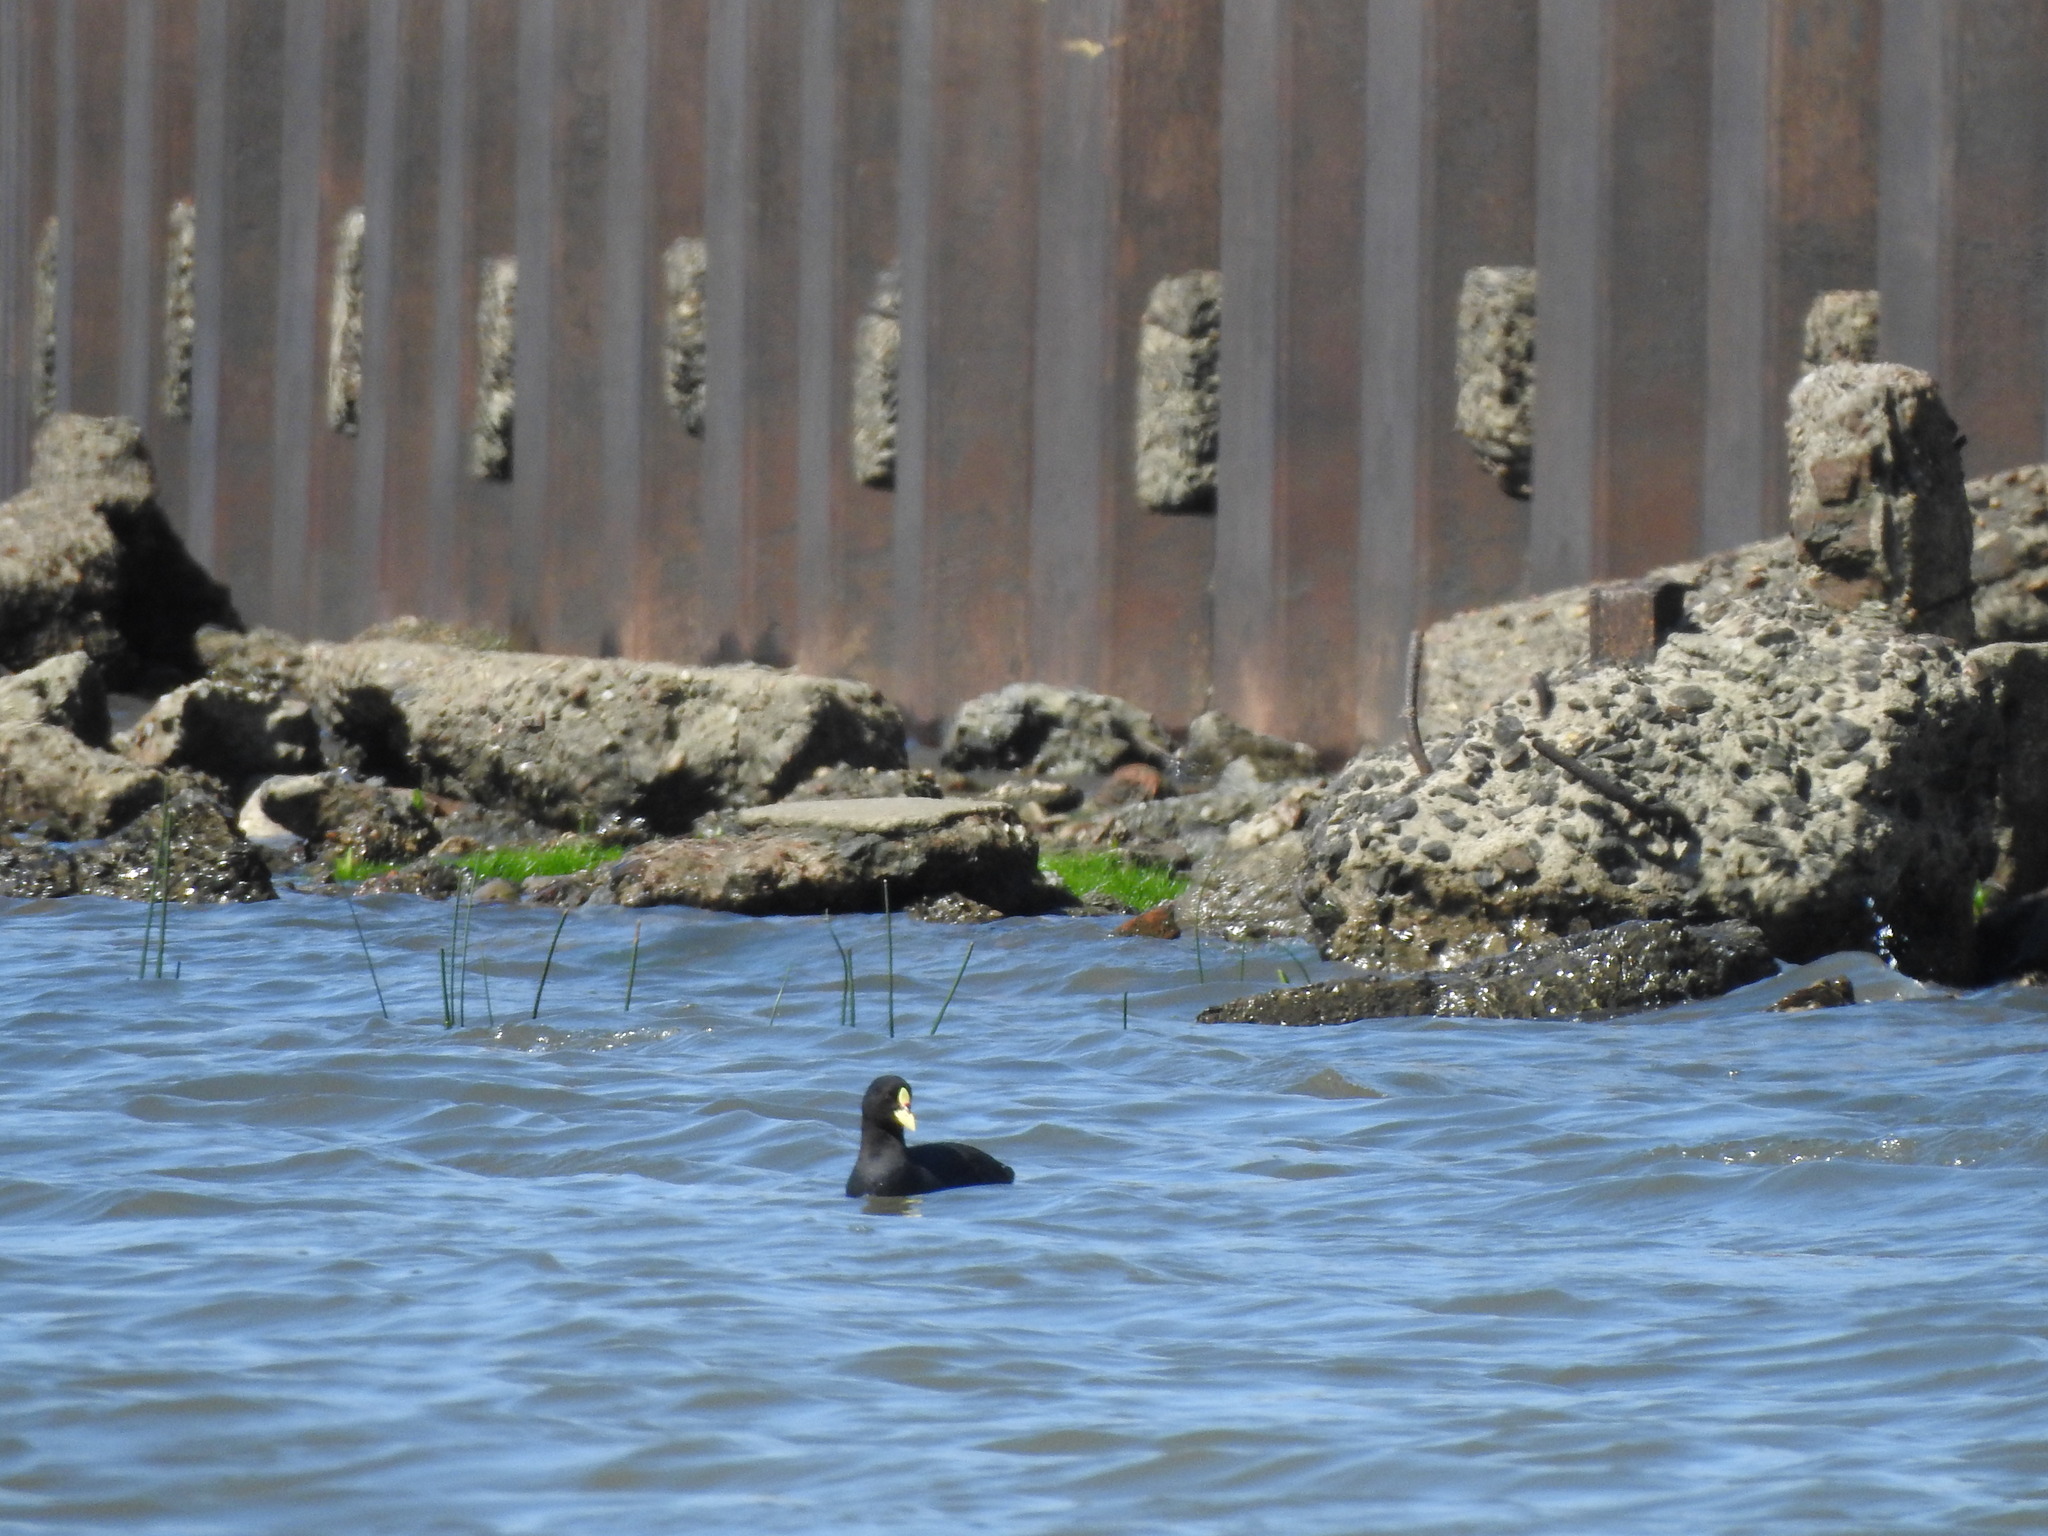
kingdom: Animalia
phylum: Chordata
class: Aves
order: Gruiformes
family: Rallidae
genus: Fulica
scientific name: Fulica armillata
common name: Red-gartered coot
